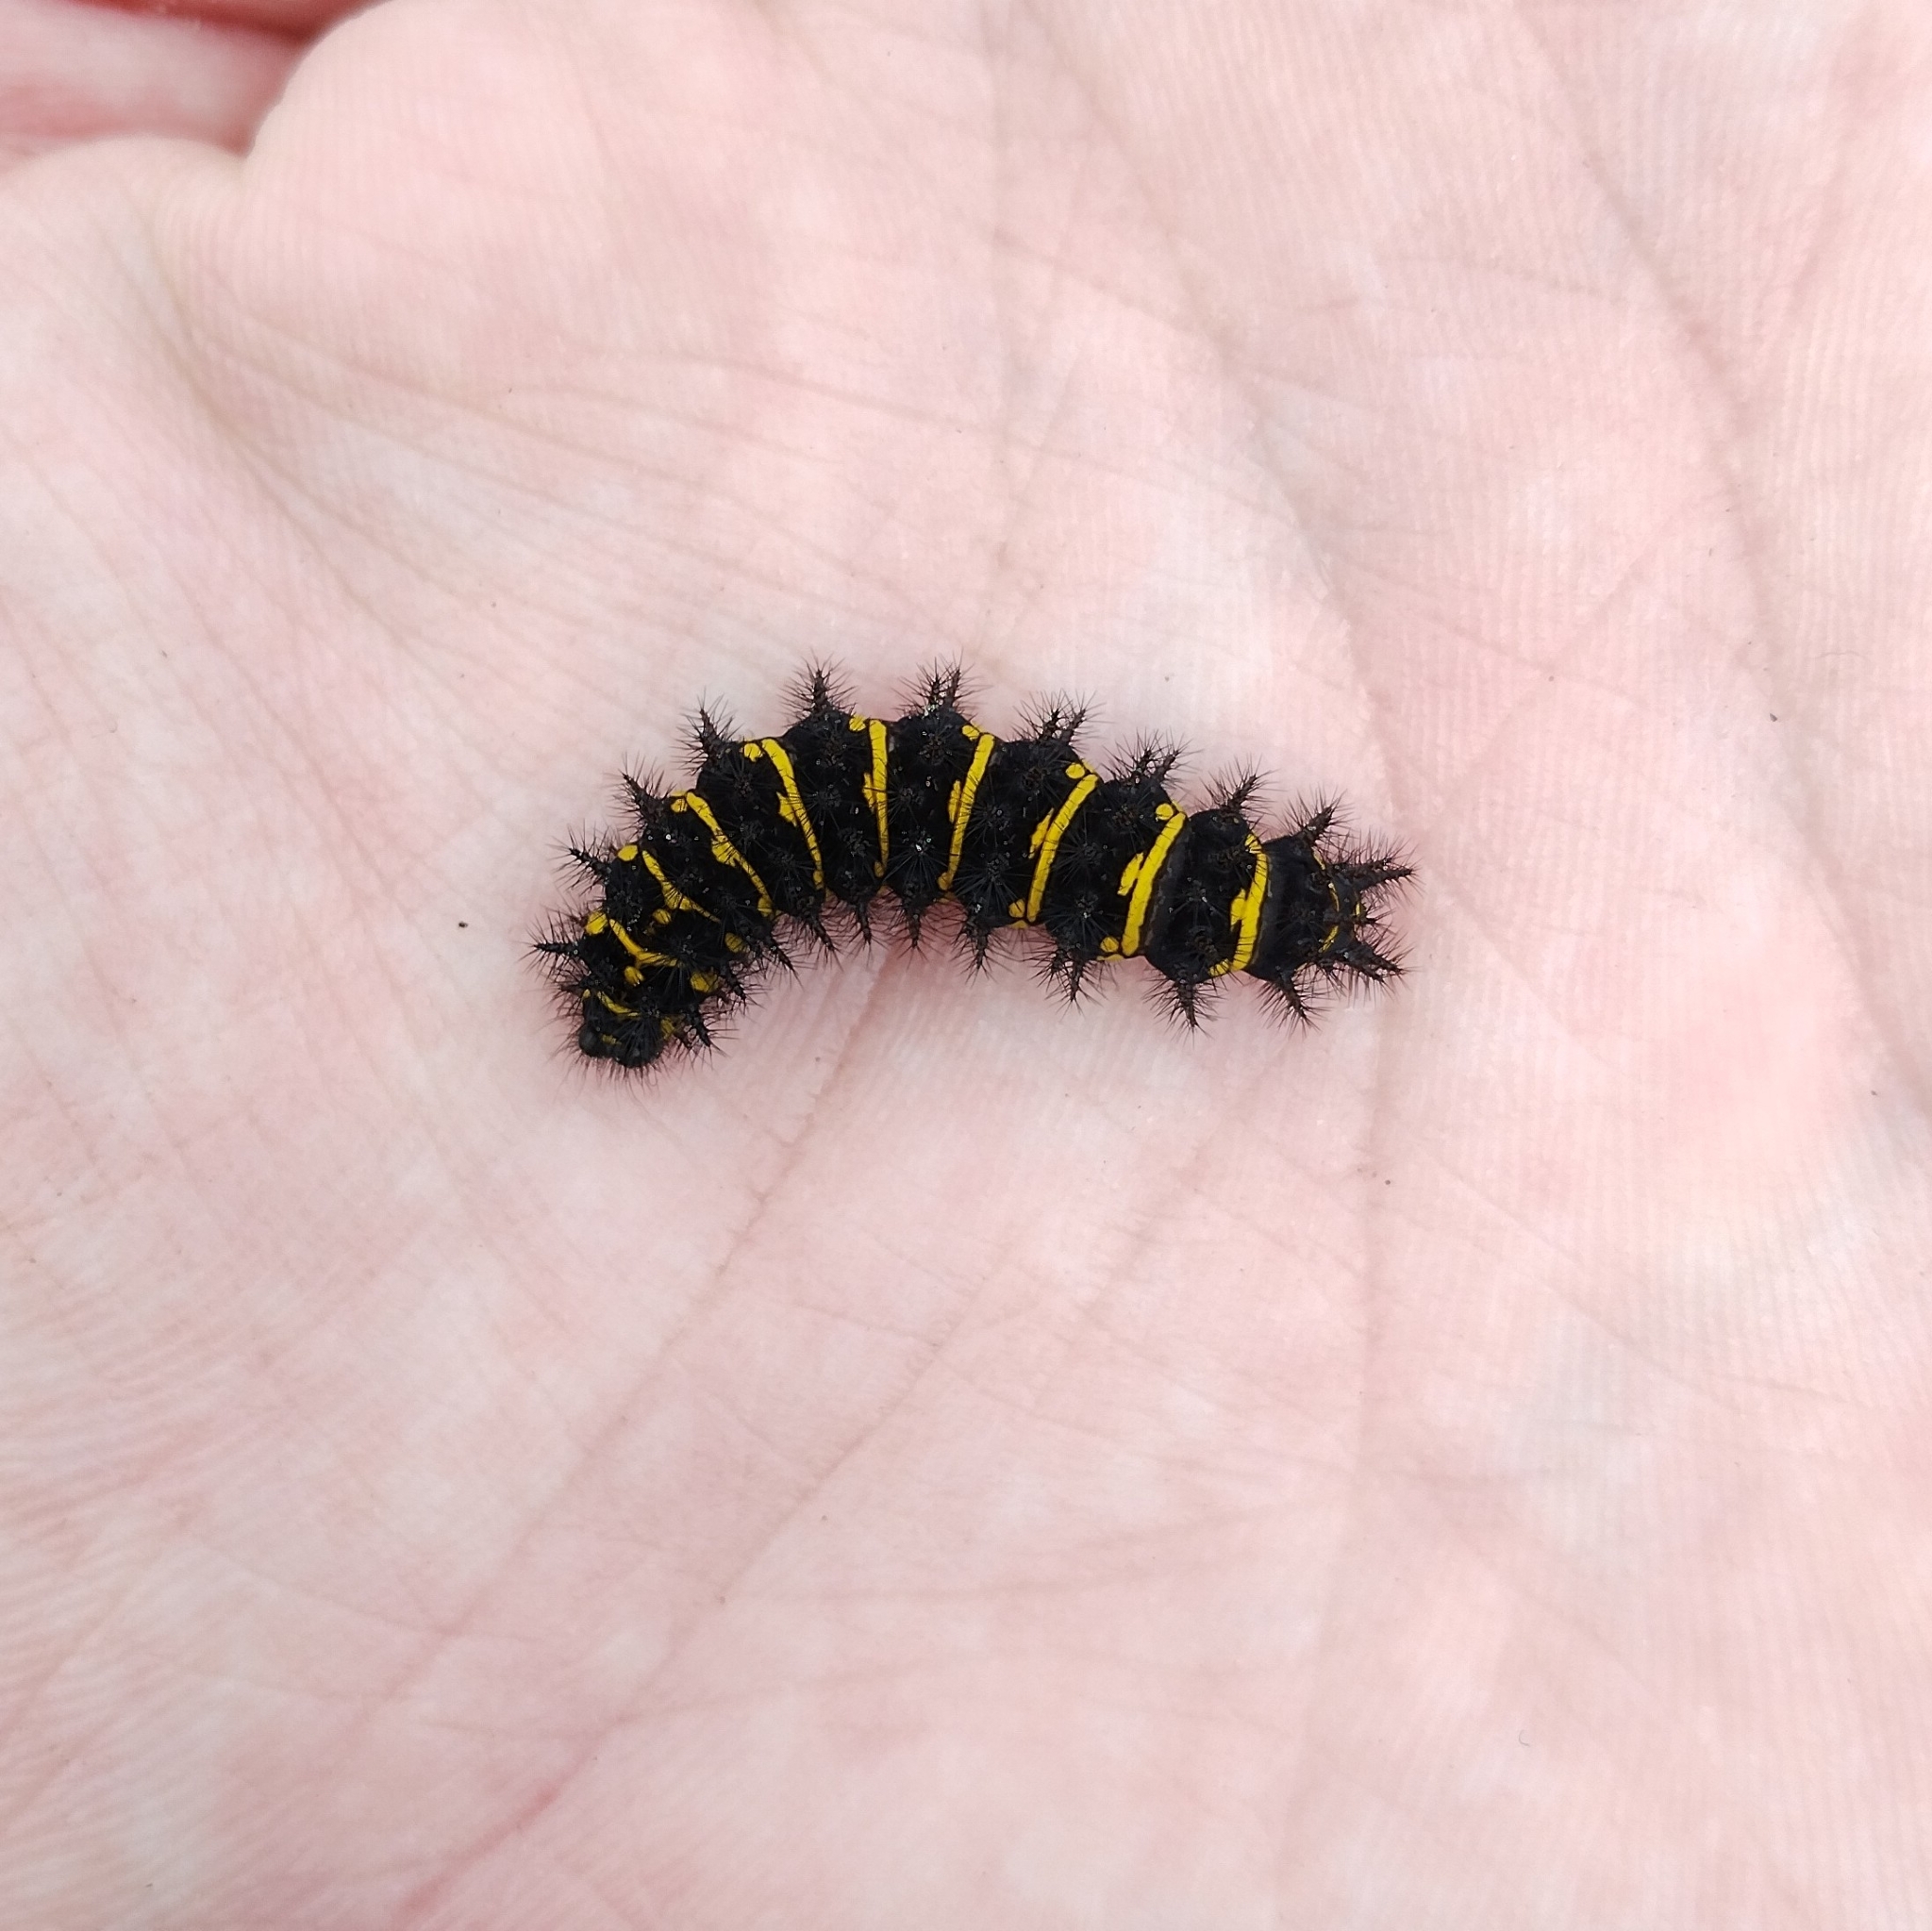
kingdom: Animalia
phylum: Arthropoda
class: Insecta
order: Lepidoptera
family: Nymphalidae
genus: Hypodryas
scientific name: Hypodryas cynthia
